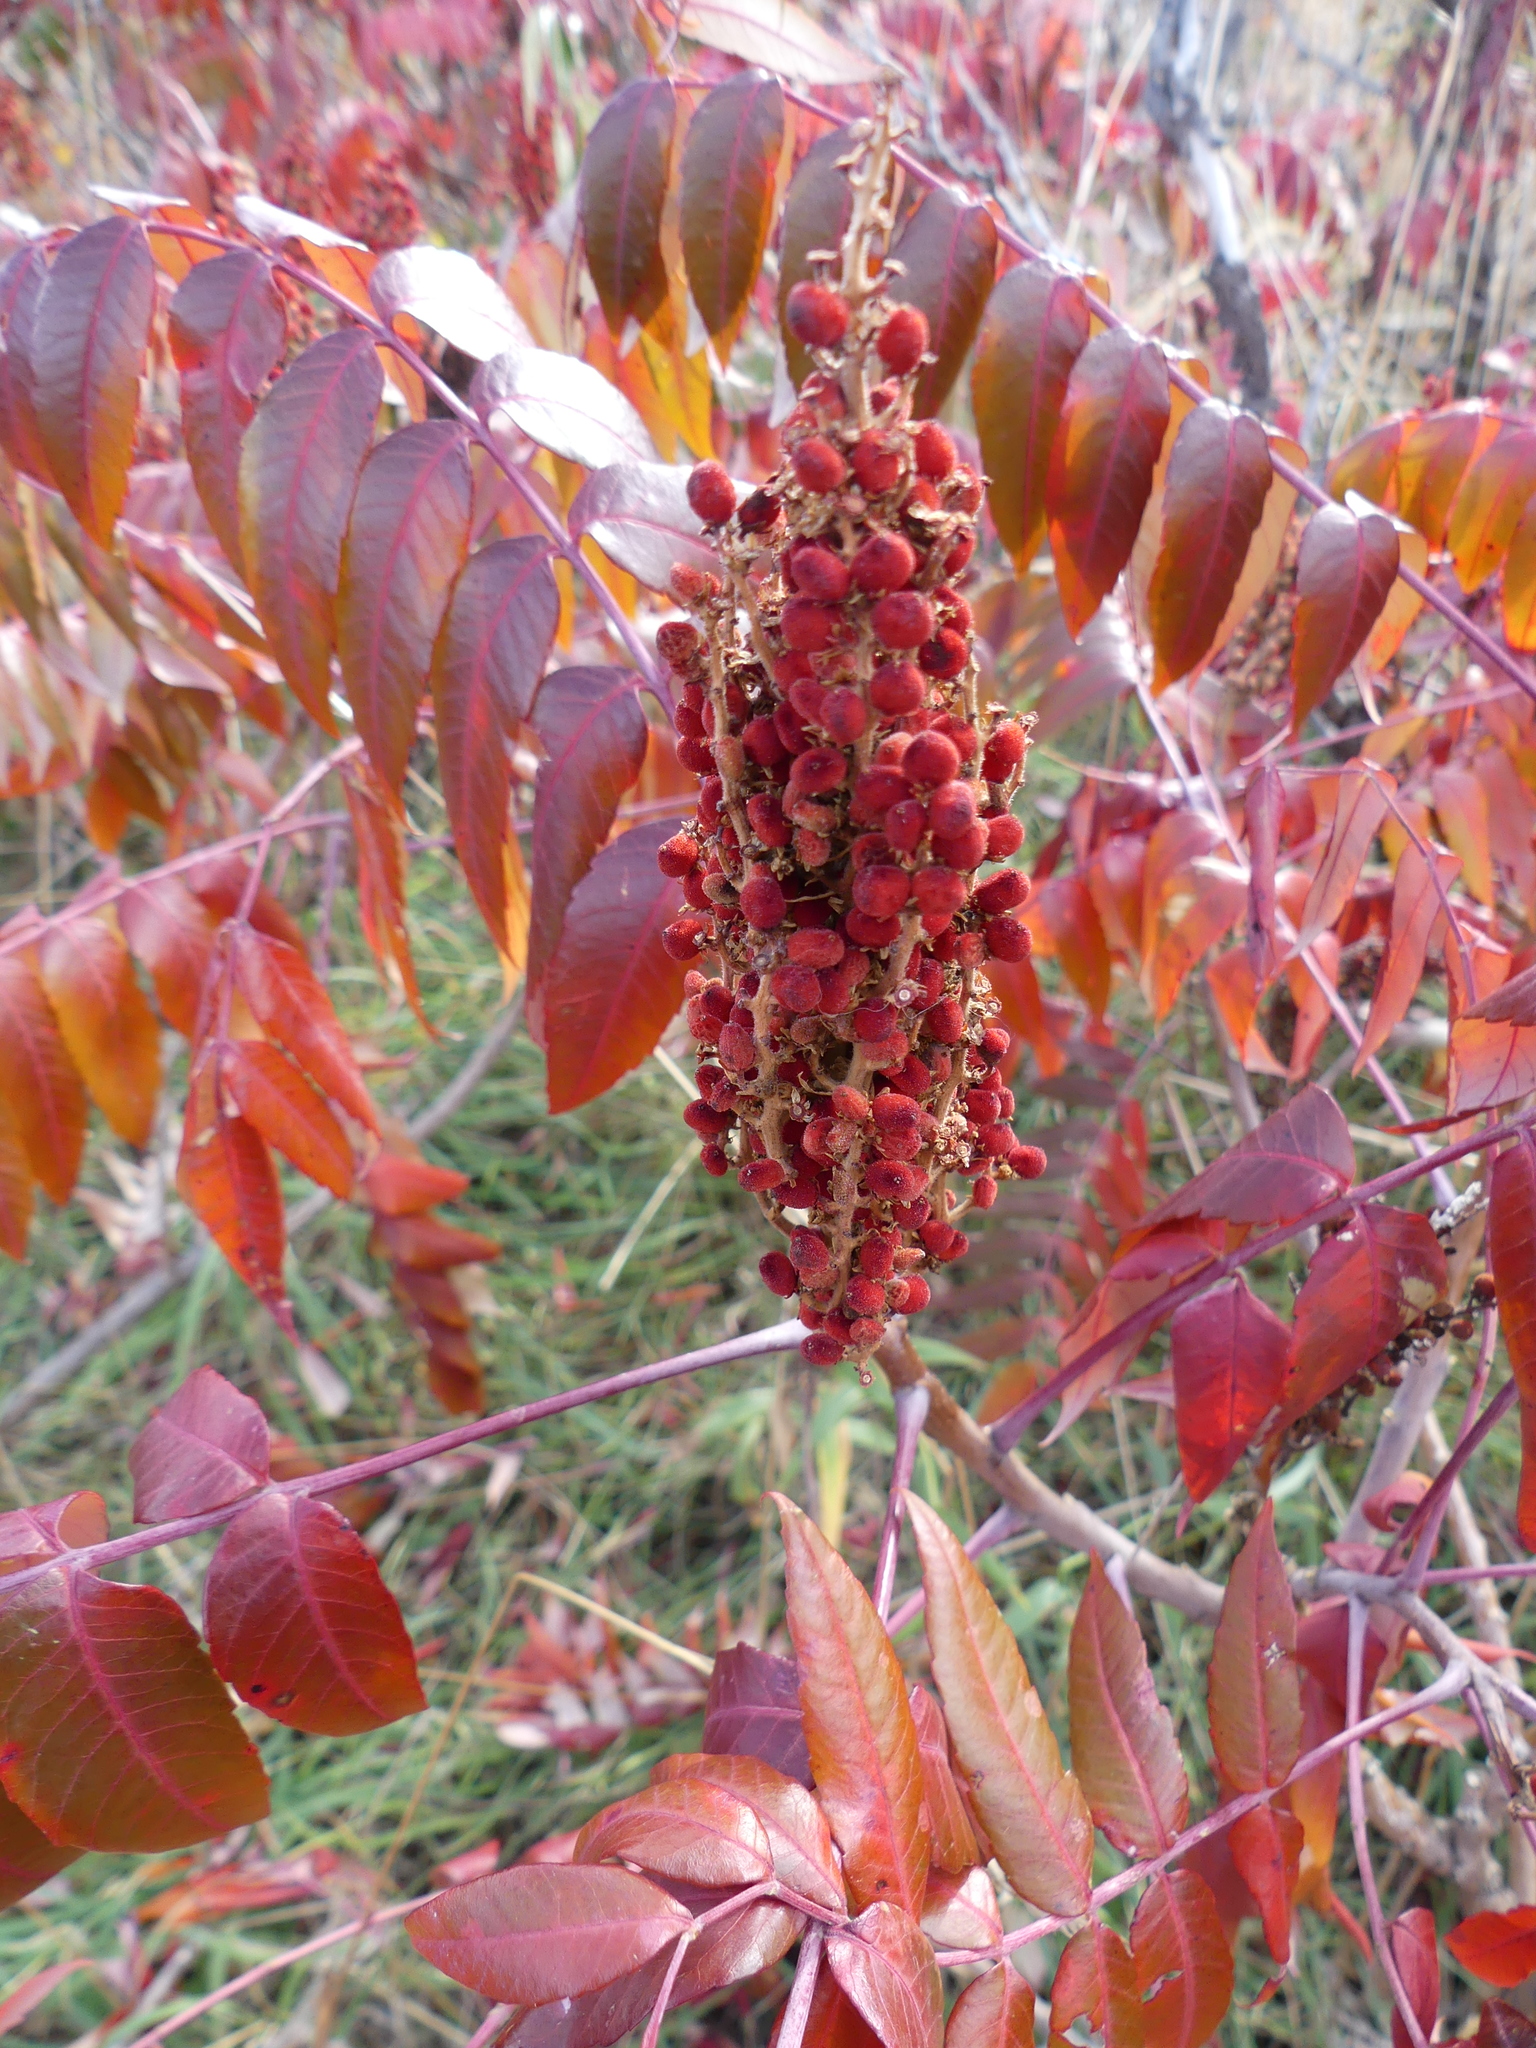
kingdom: Plantae
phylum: Tracheophyta
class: Magnoliopsida
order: Sapindales
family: Anacardiaceae
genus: Rhus
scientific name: Rhus glabra
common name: Scarlet sumac
